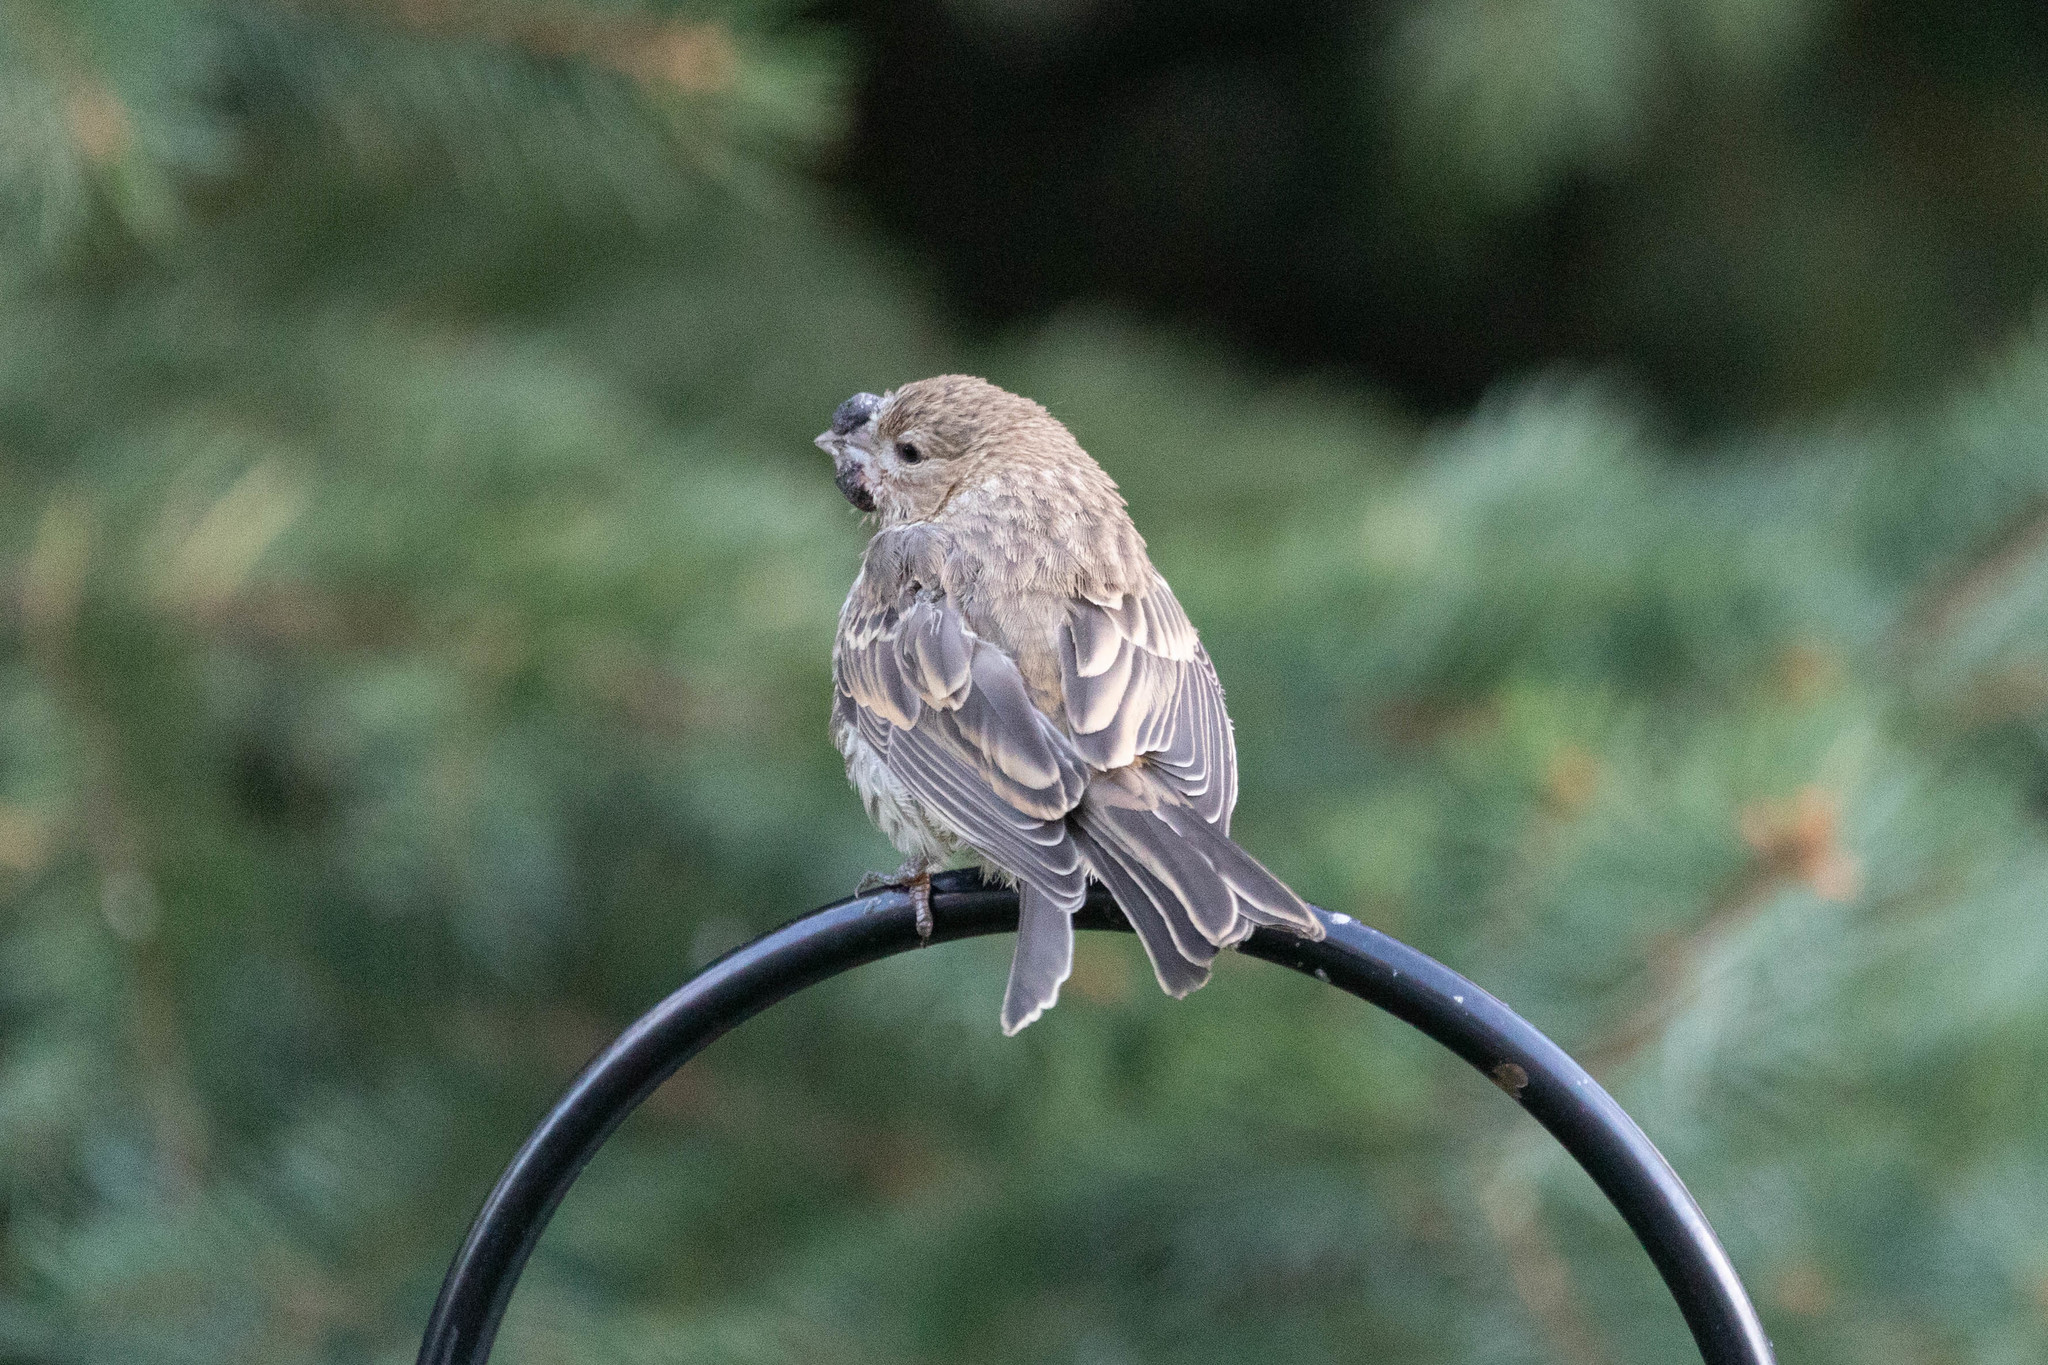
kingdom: Animalia
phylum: Chordata
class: Aves
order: Passeriformes
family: Fringillidae
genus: Haemorhous
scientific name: Haemorhous mexicanus
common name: House finch
